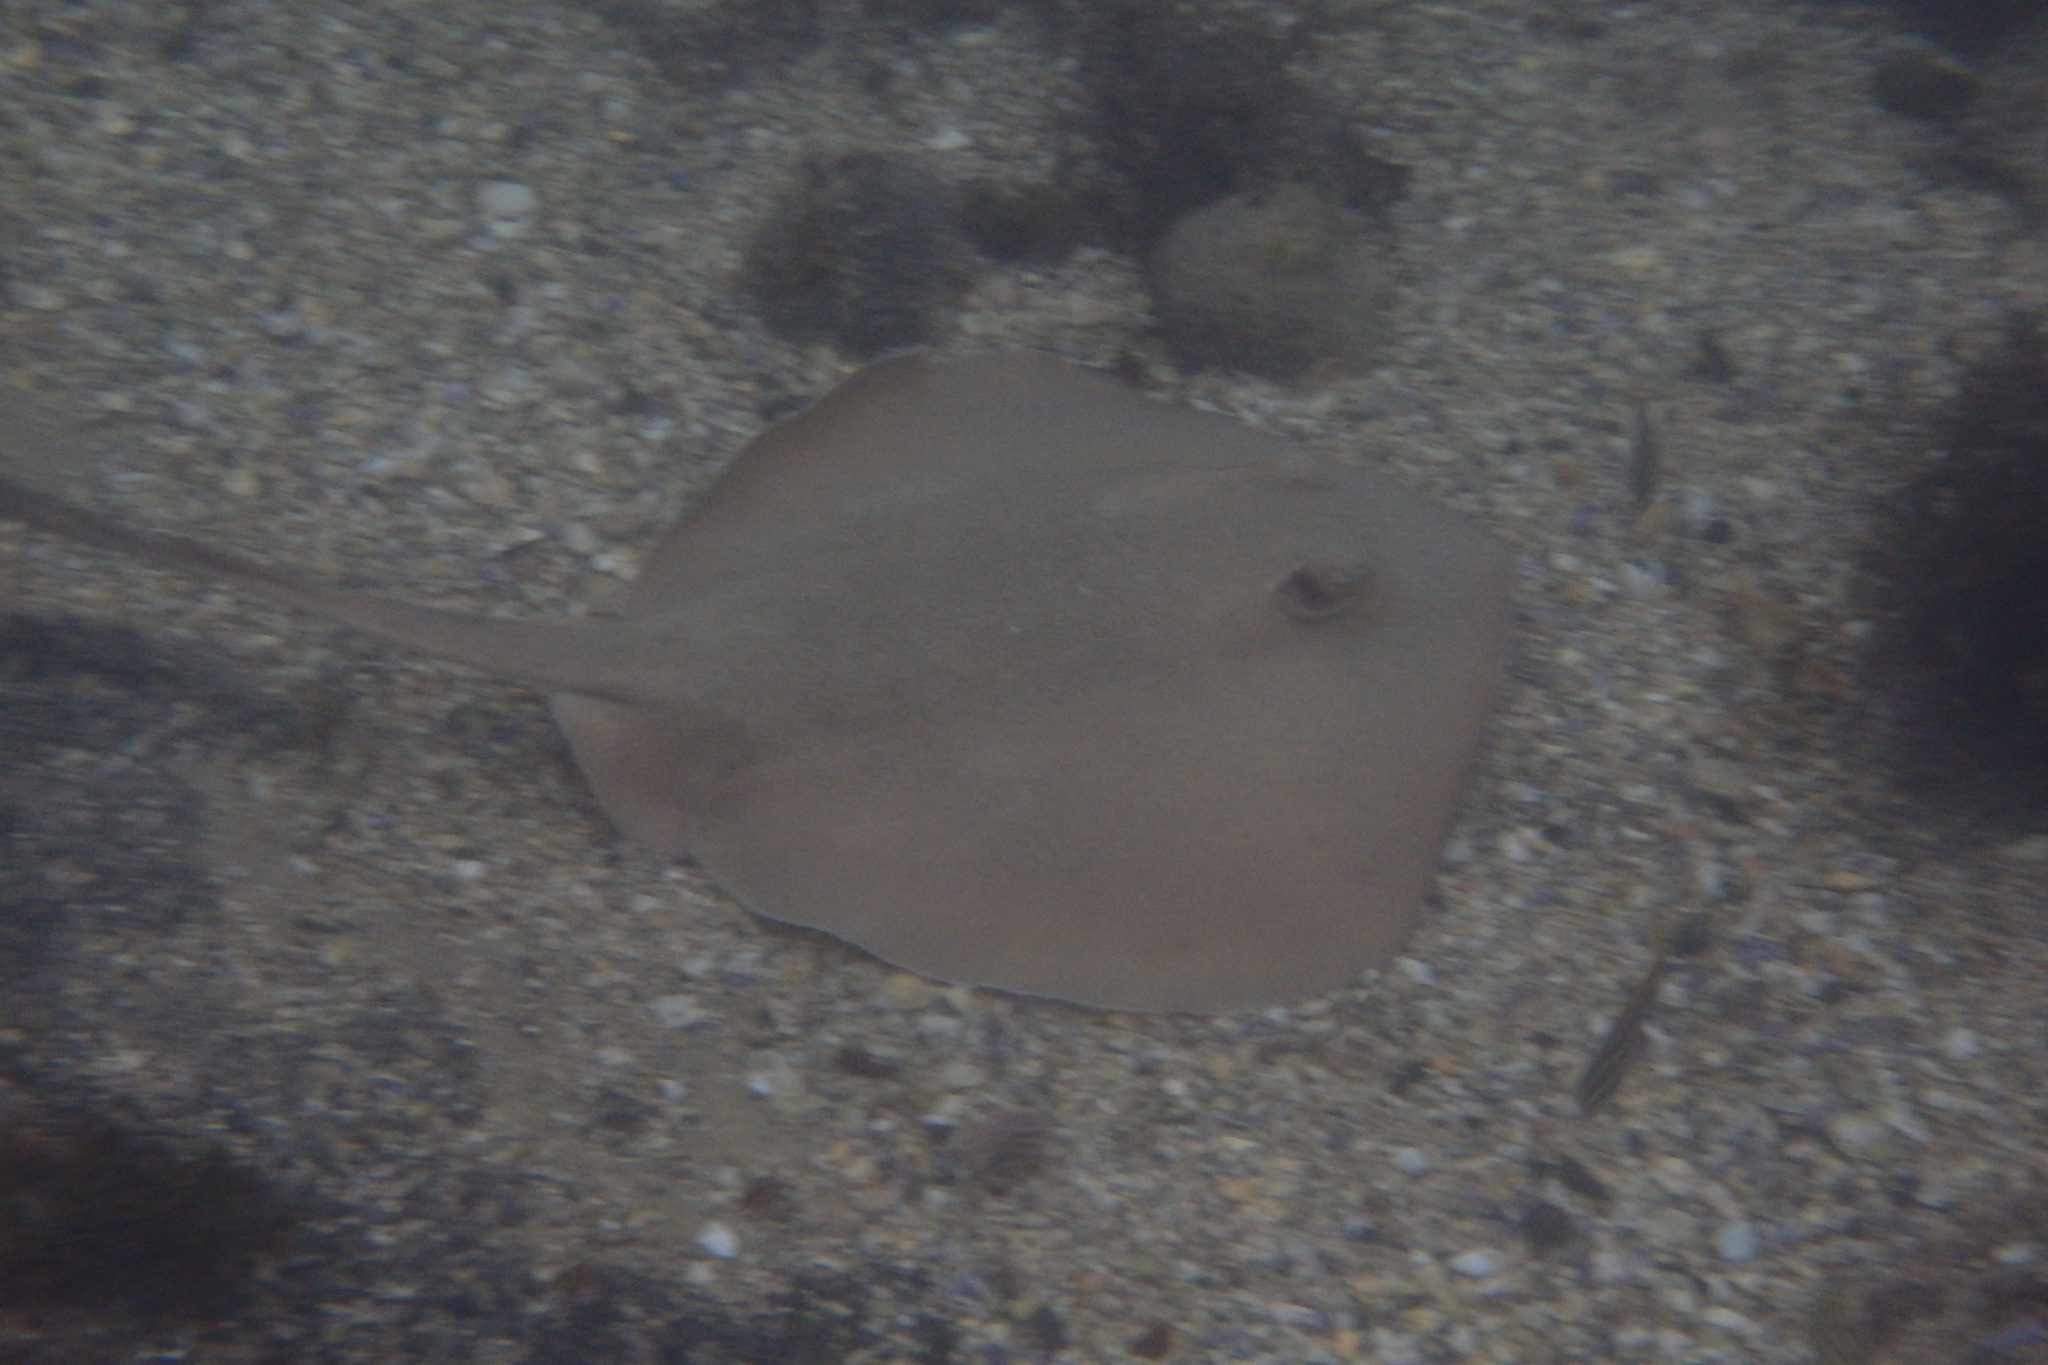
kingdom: Animalia
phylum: Chordata
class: Elasmobranchii
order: Myliobatiformes
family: Urolophidae
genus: Trygonoptera
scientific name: Trygonoptera testacea
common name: Common stingaree
